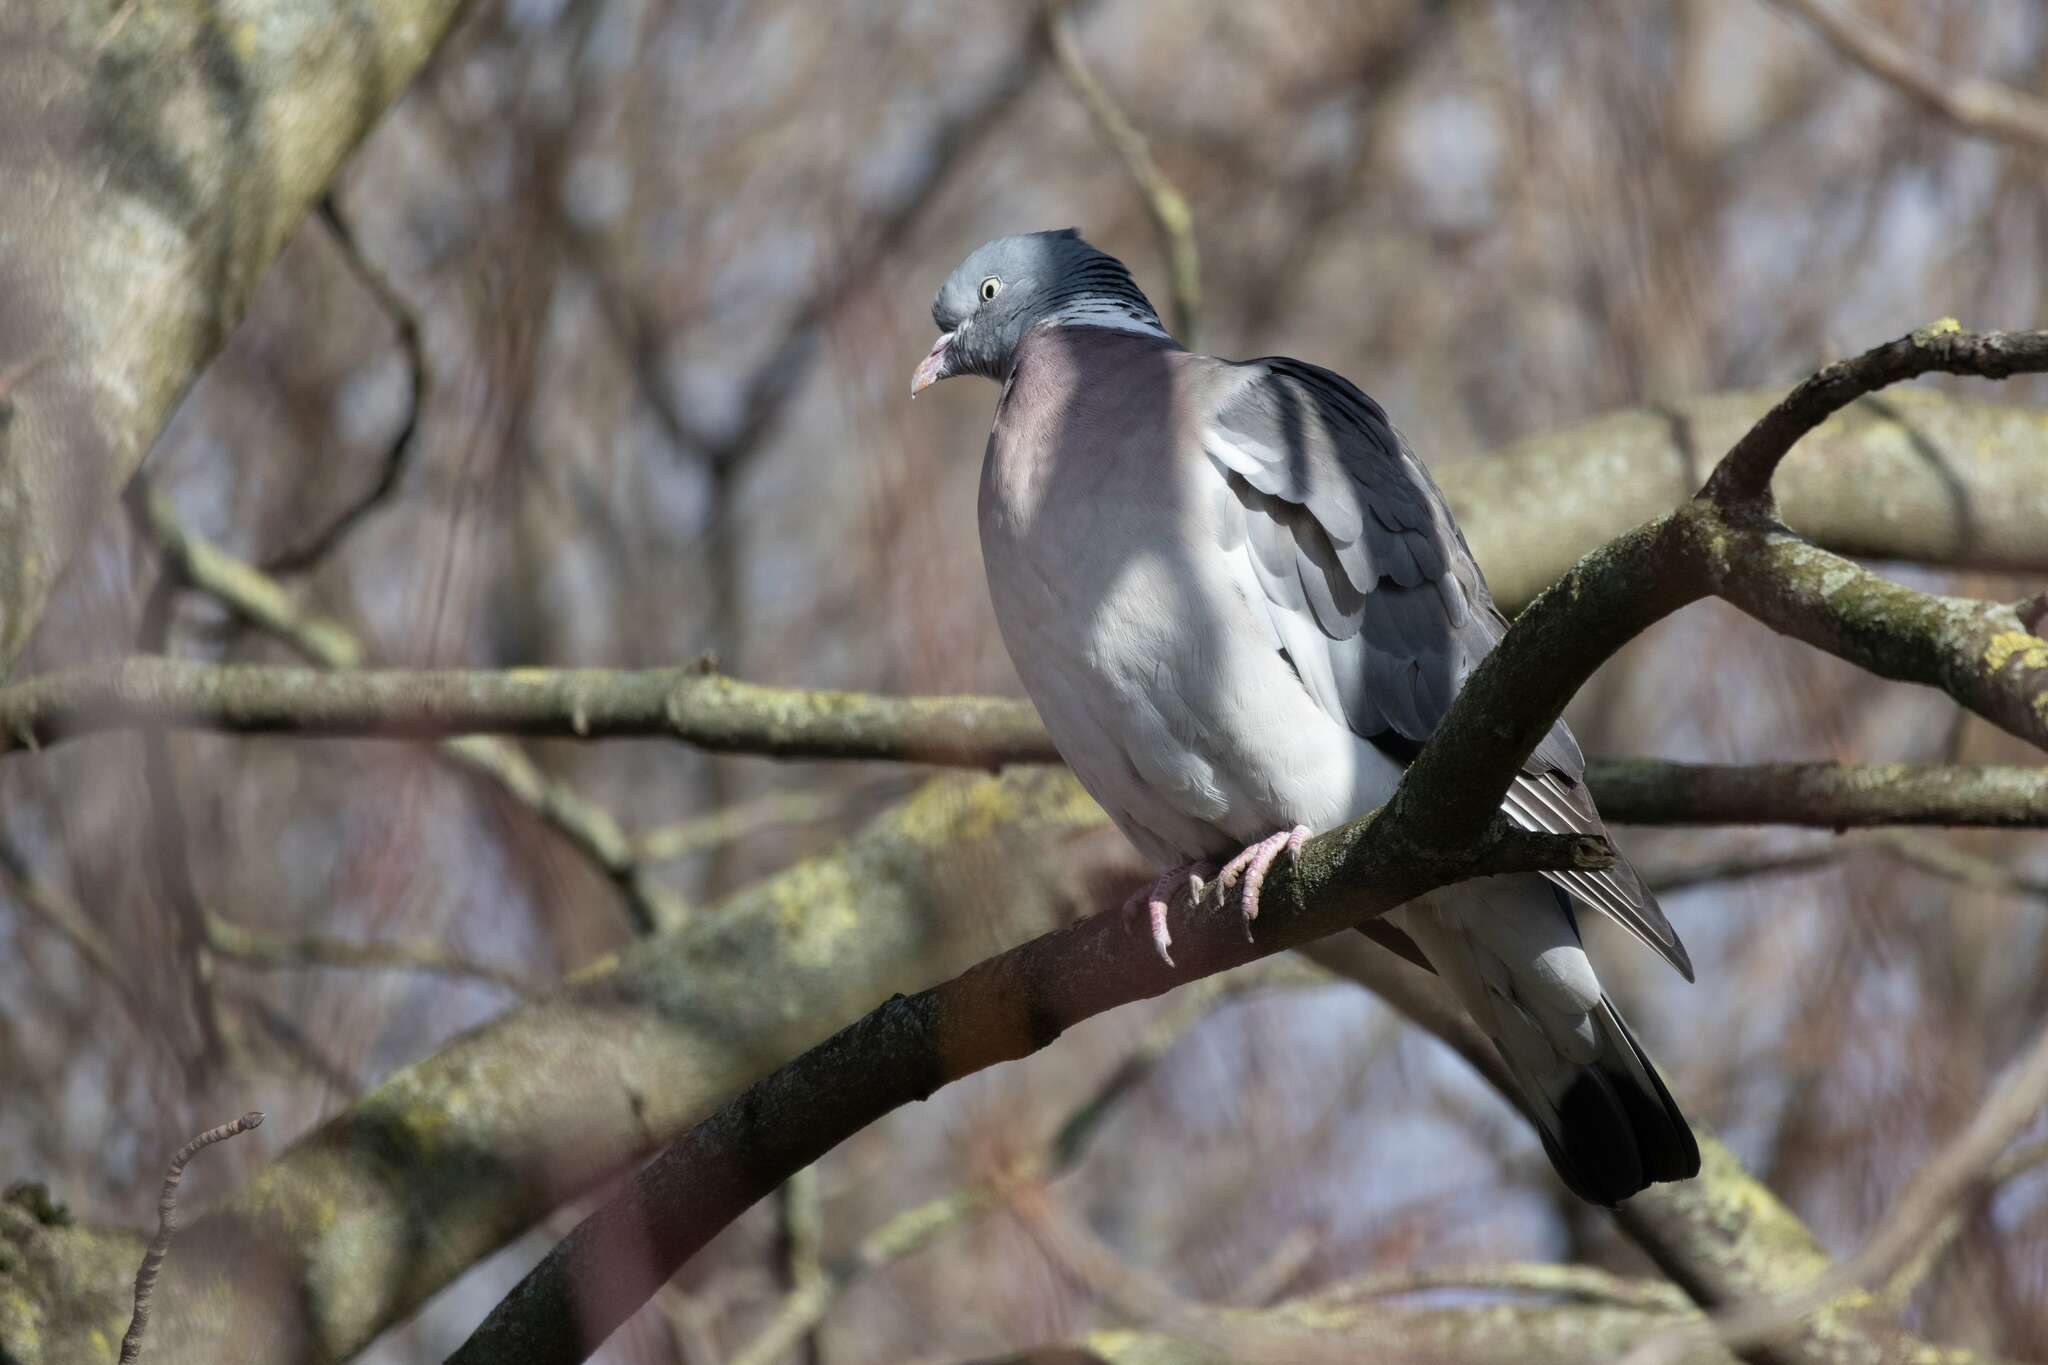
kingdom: Animalia
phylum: Chordata
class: Aves
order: Columbiformes
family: Columbidae
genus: Columba
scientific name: Columba palumbus
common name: Common wood pigeon
